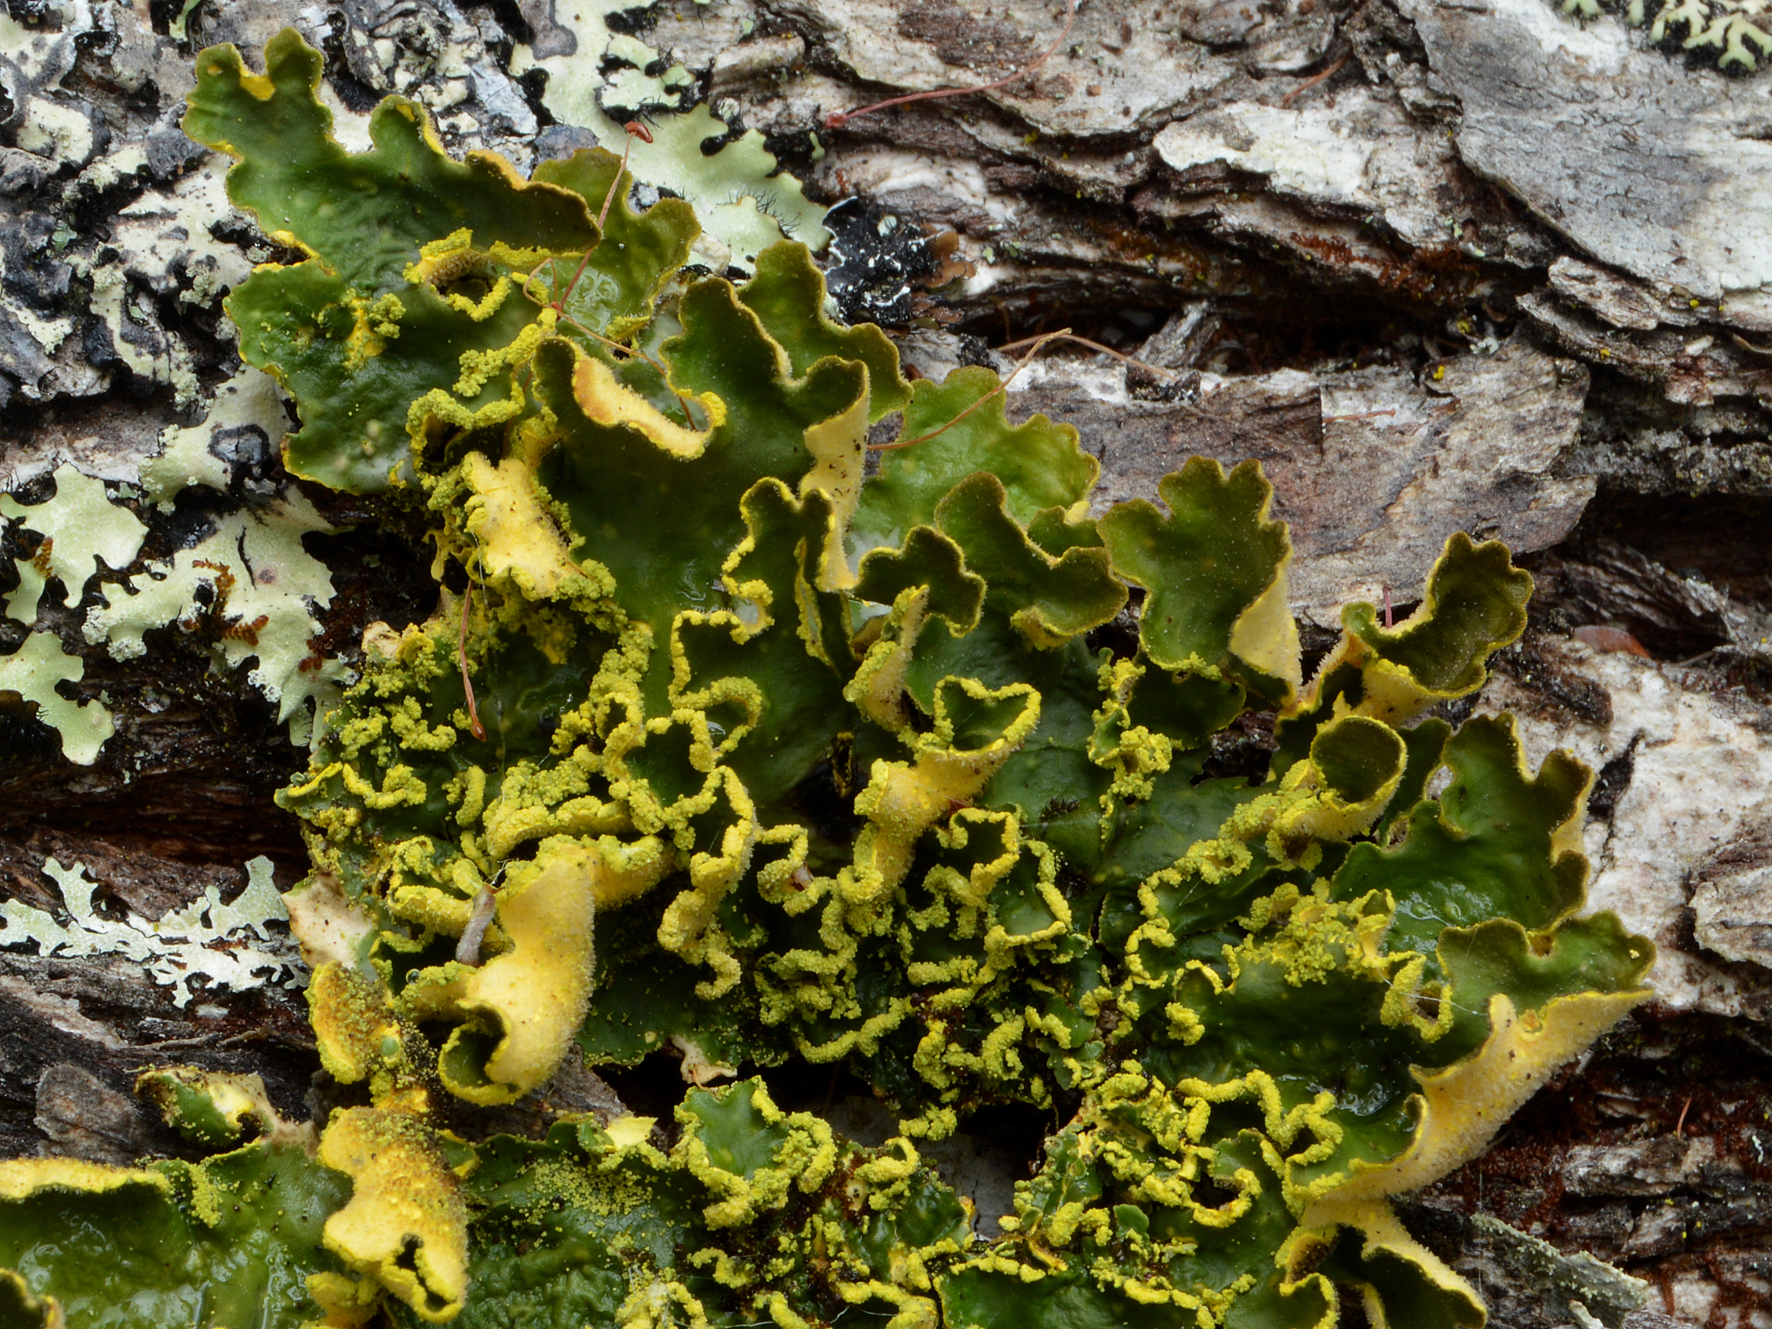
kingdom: Fungi
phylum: Ascomycota
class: Lecanoromycetes
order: Peltigerales
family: Lobariaceae
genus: Pseudocyphellaria
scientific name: Pseudocyphellaria aurata
